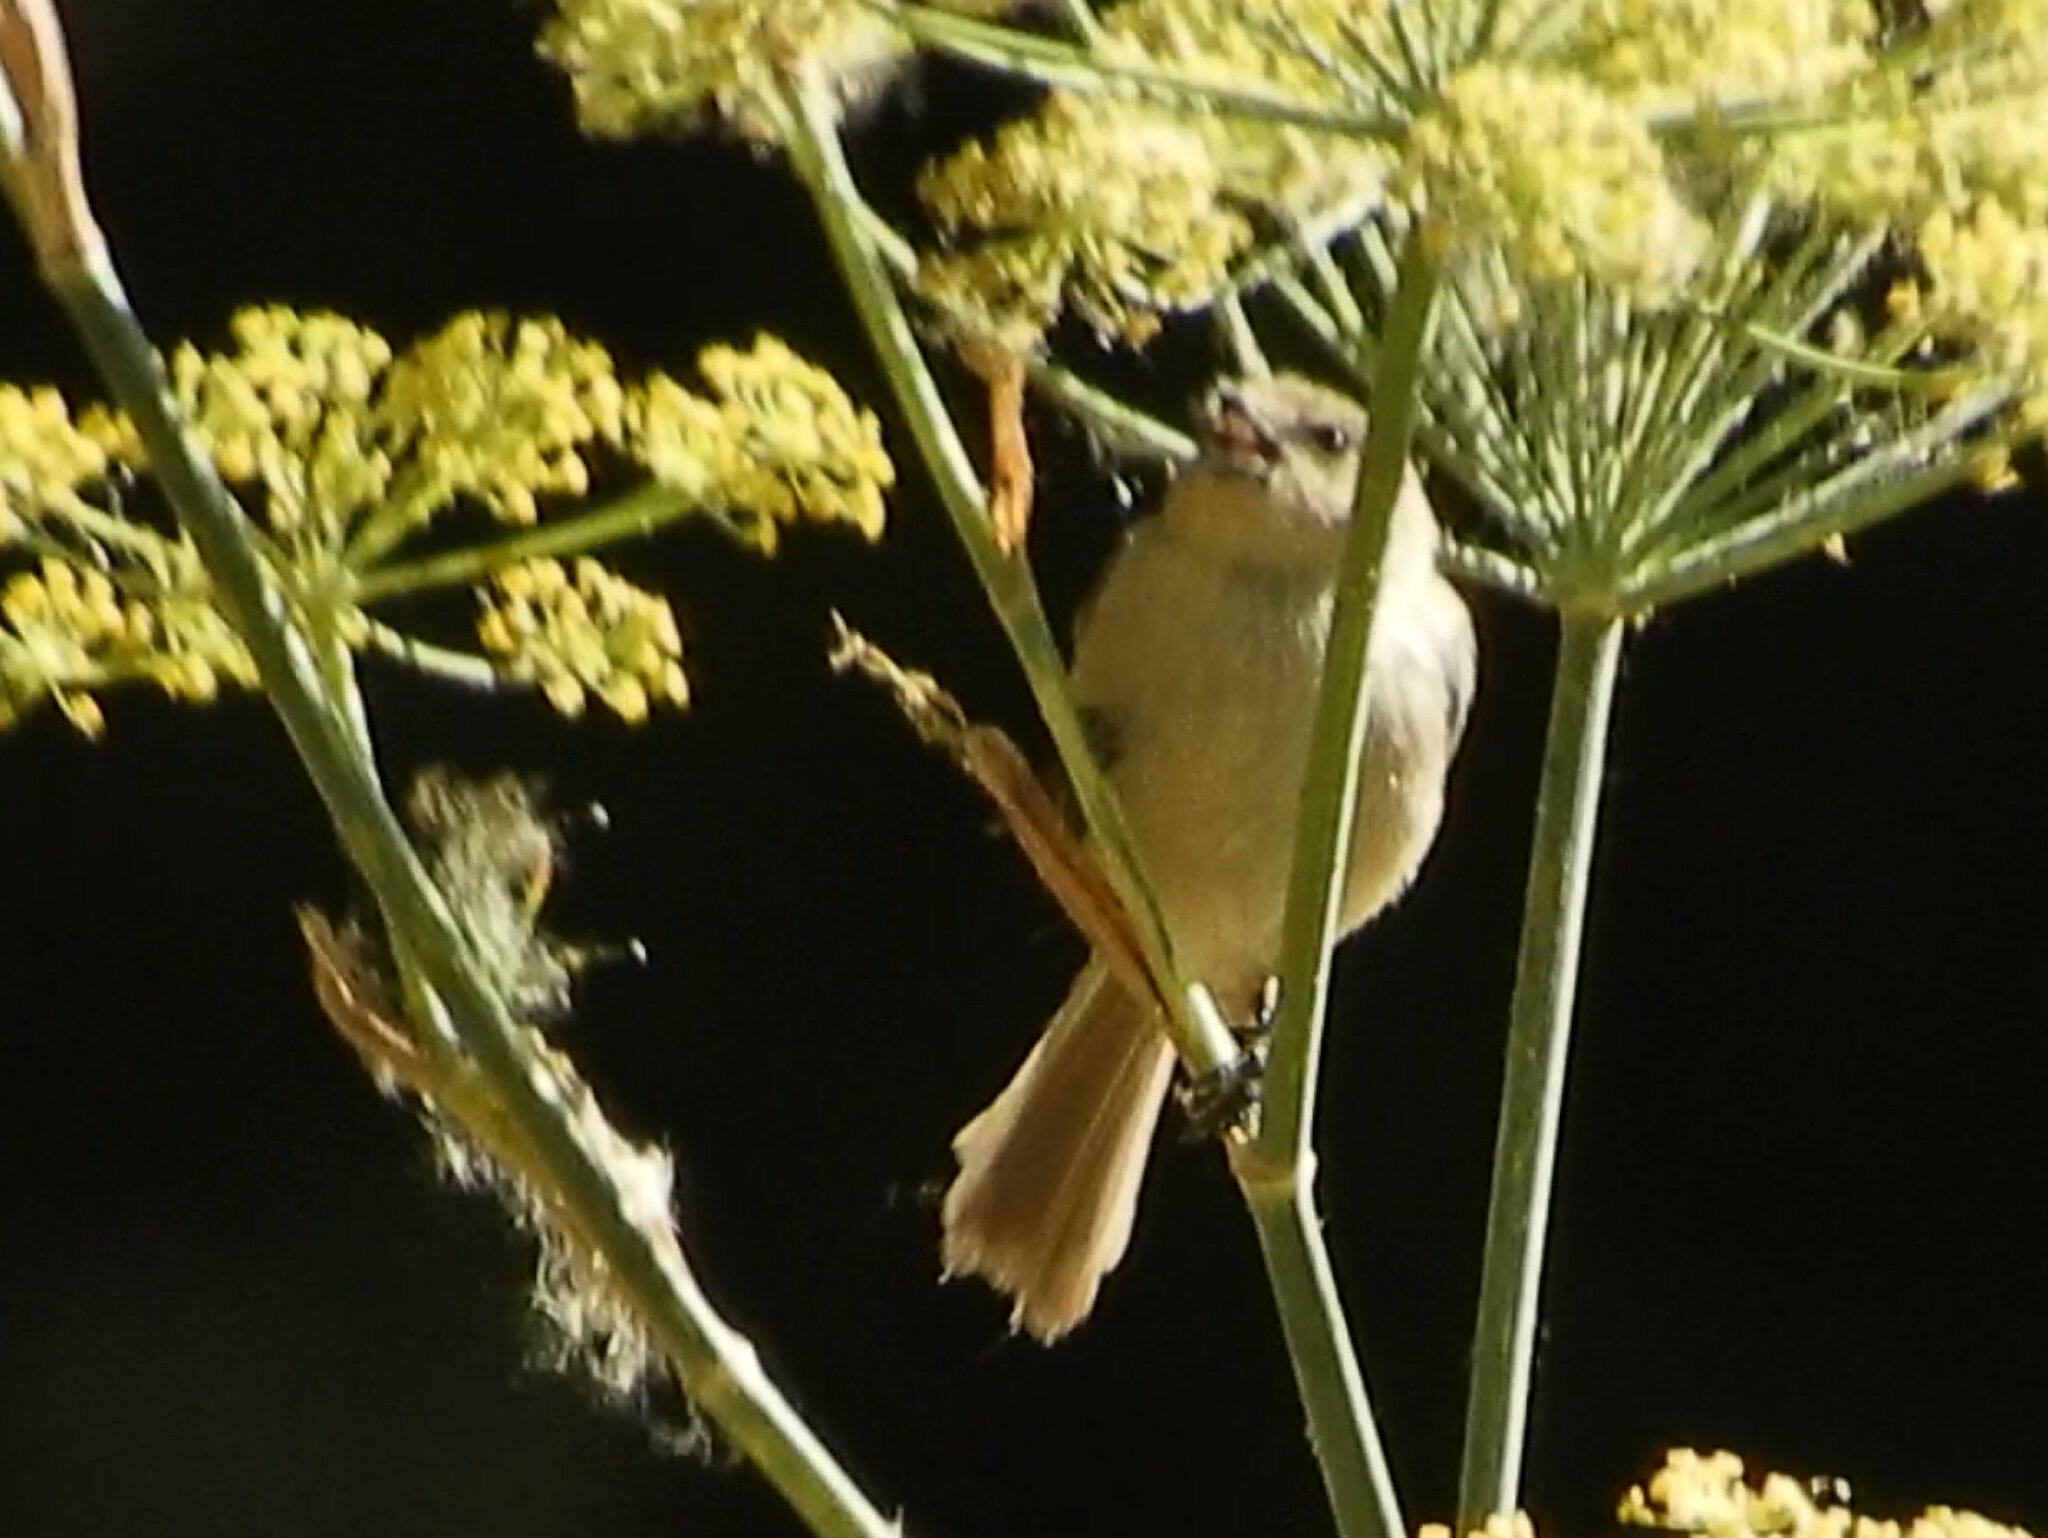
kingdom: Animalia
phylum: Chordata
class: Aves
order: Passeriformes
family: Aegithalidae
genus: Psaltriparus
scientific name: Psaltriparus minimus
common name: American bushtit
